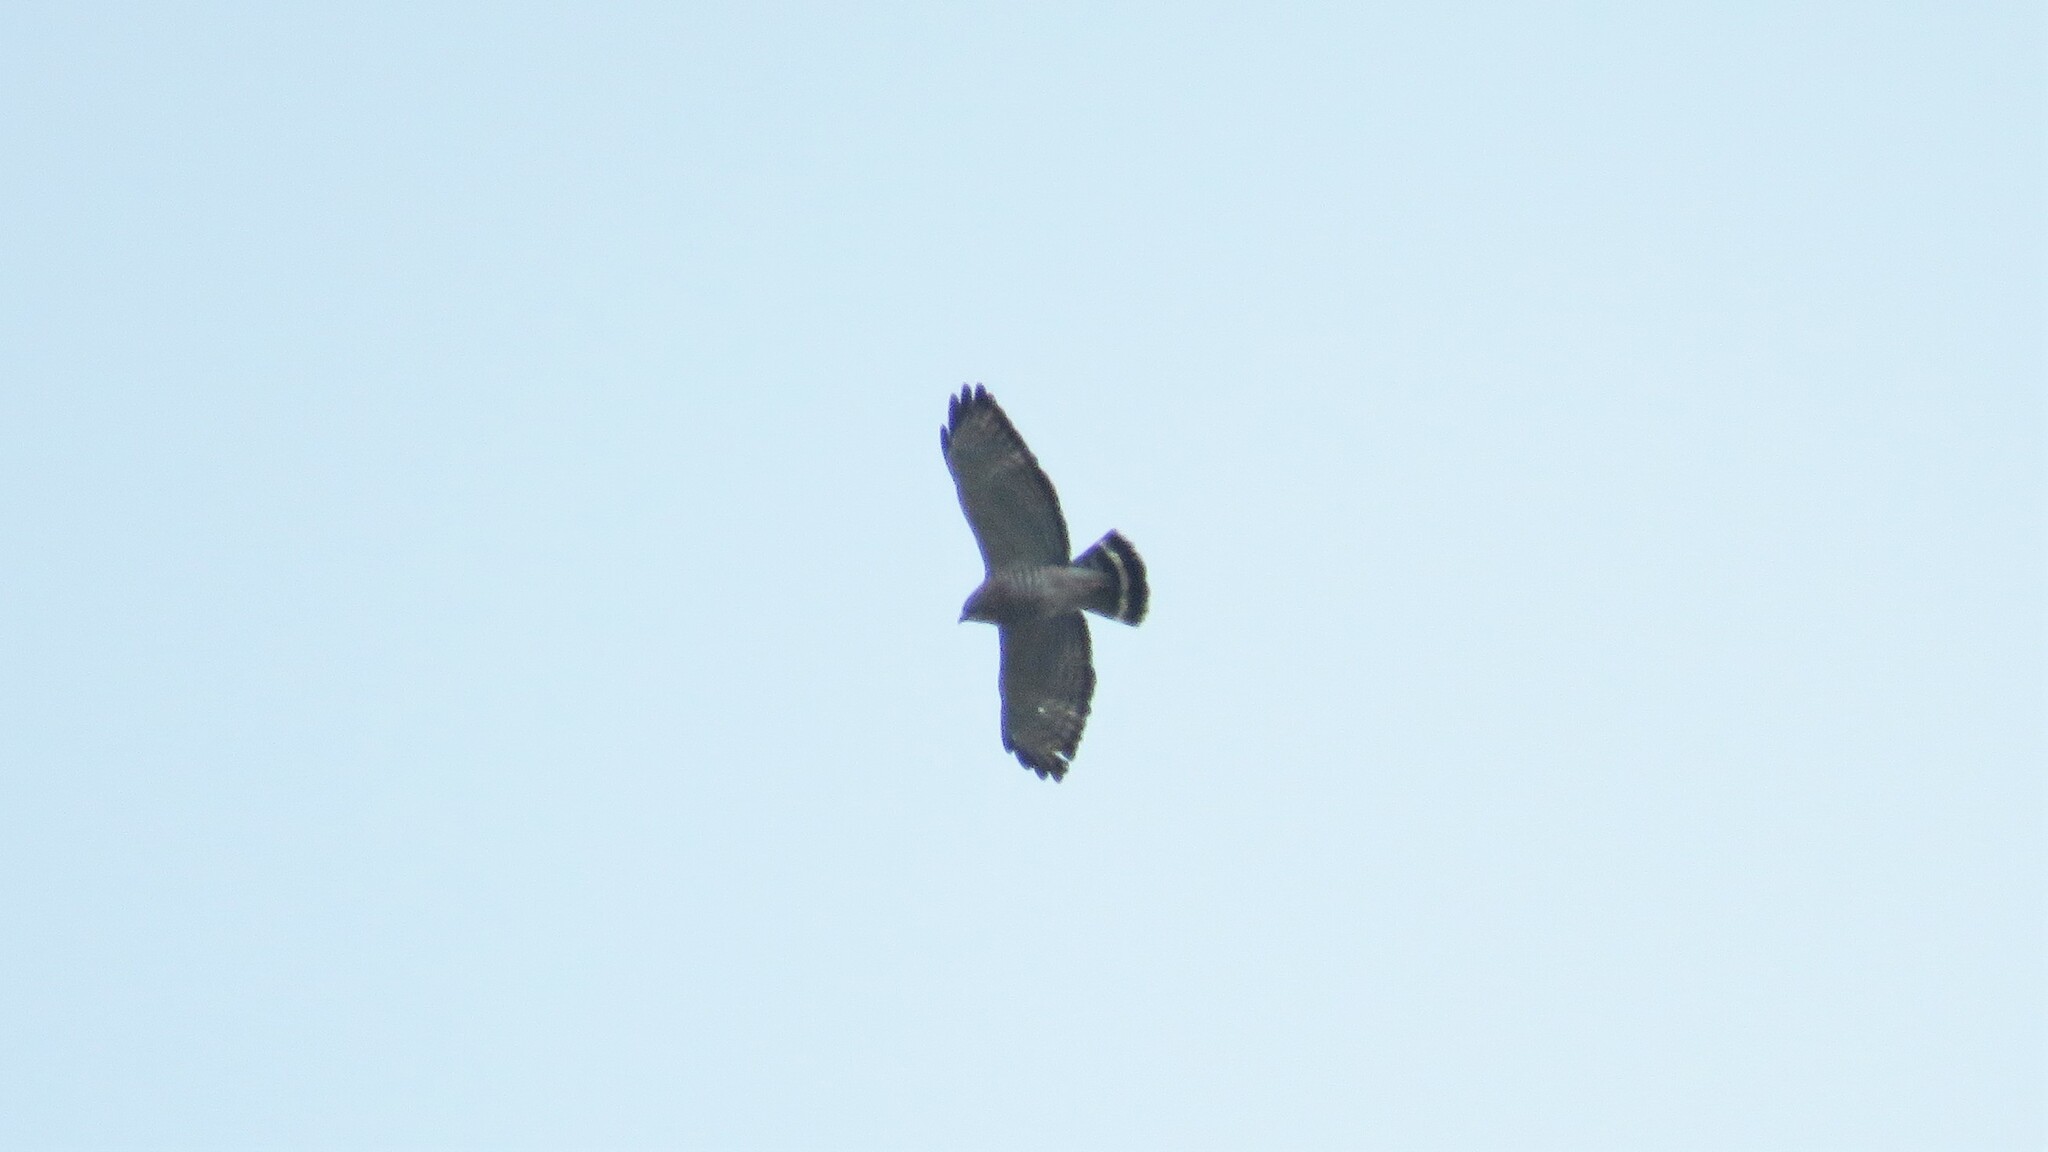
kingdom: Animalia
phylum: Chordata
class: Aves
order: Accipitriformes
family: Accipitridae
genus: Buteo
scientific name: Buteo platypterus
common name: Broad-winged hawk
